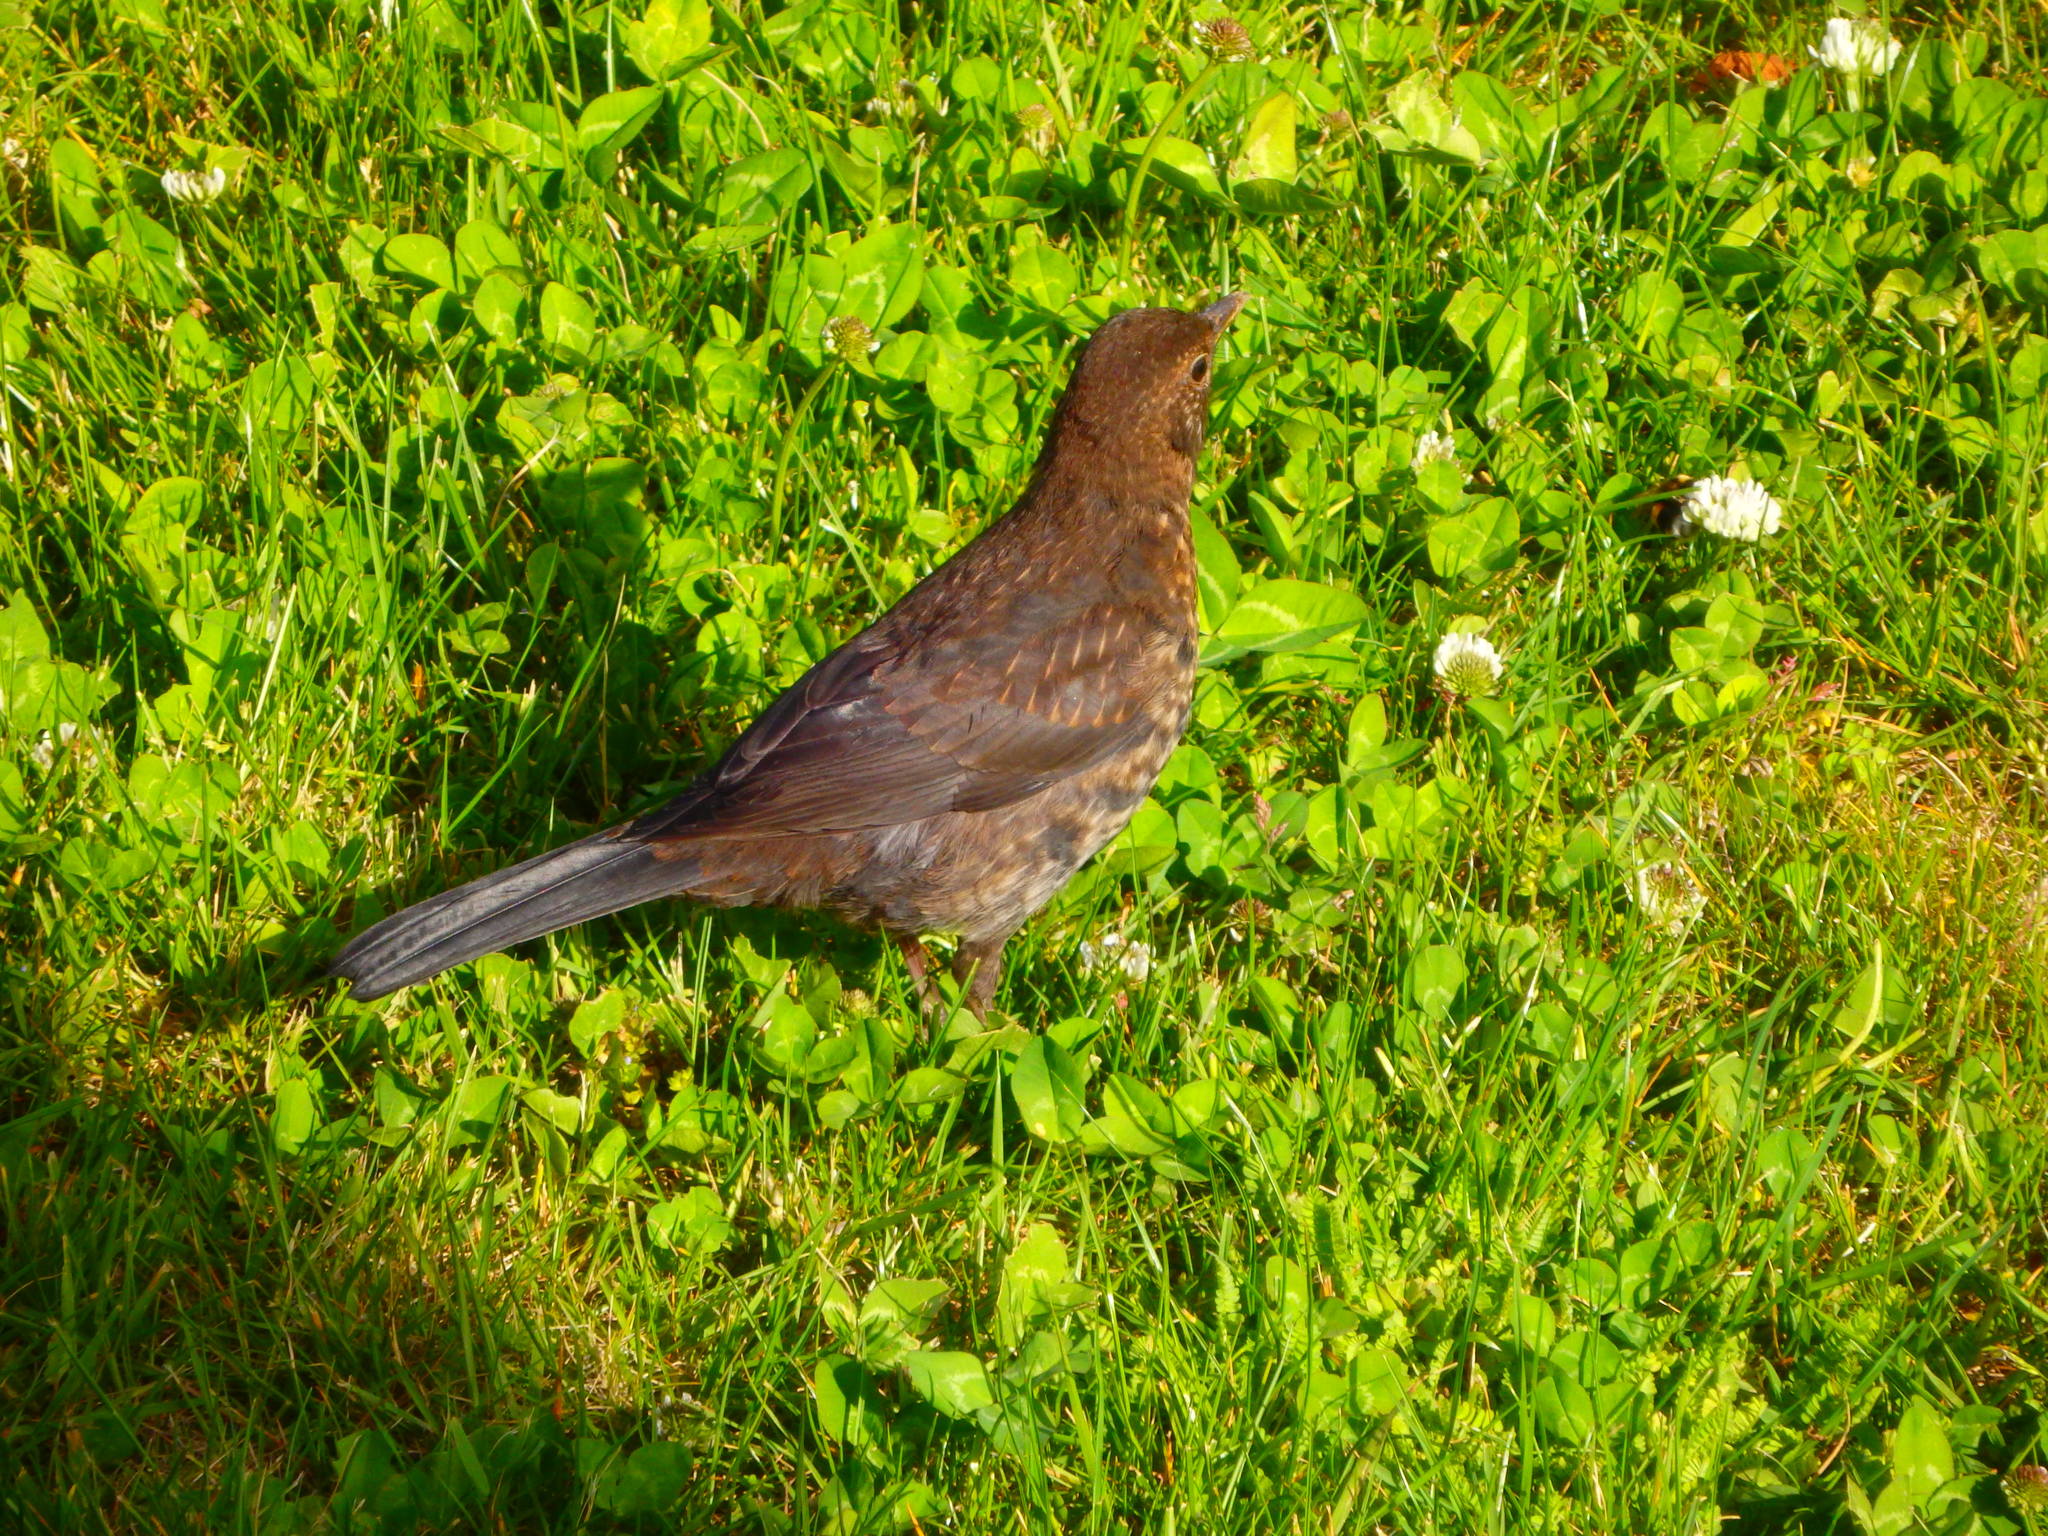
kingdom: Animalia
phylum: Chordata
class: Aves
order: Passeriformes
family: Turdidae
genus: Turdus
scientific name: Turdus merula
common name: Common blackbird
